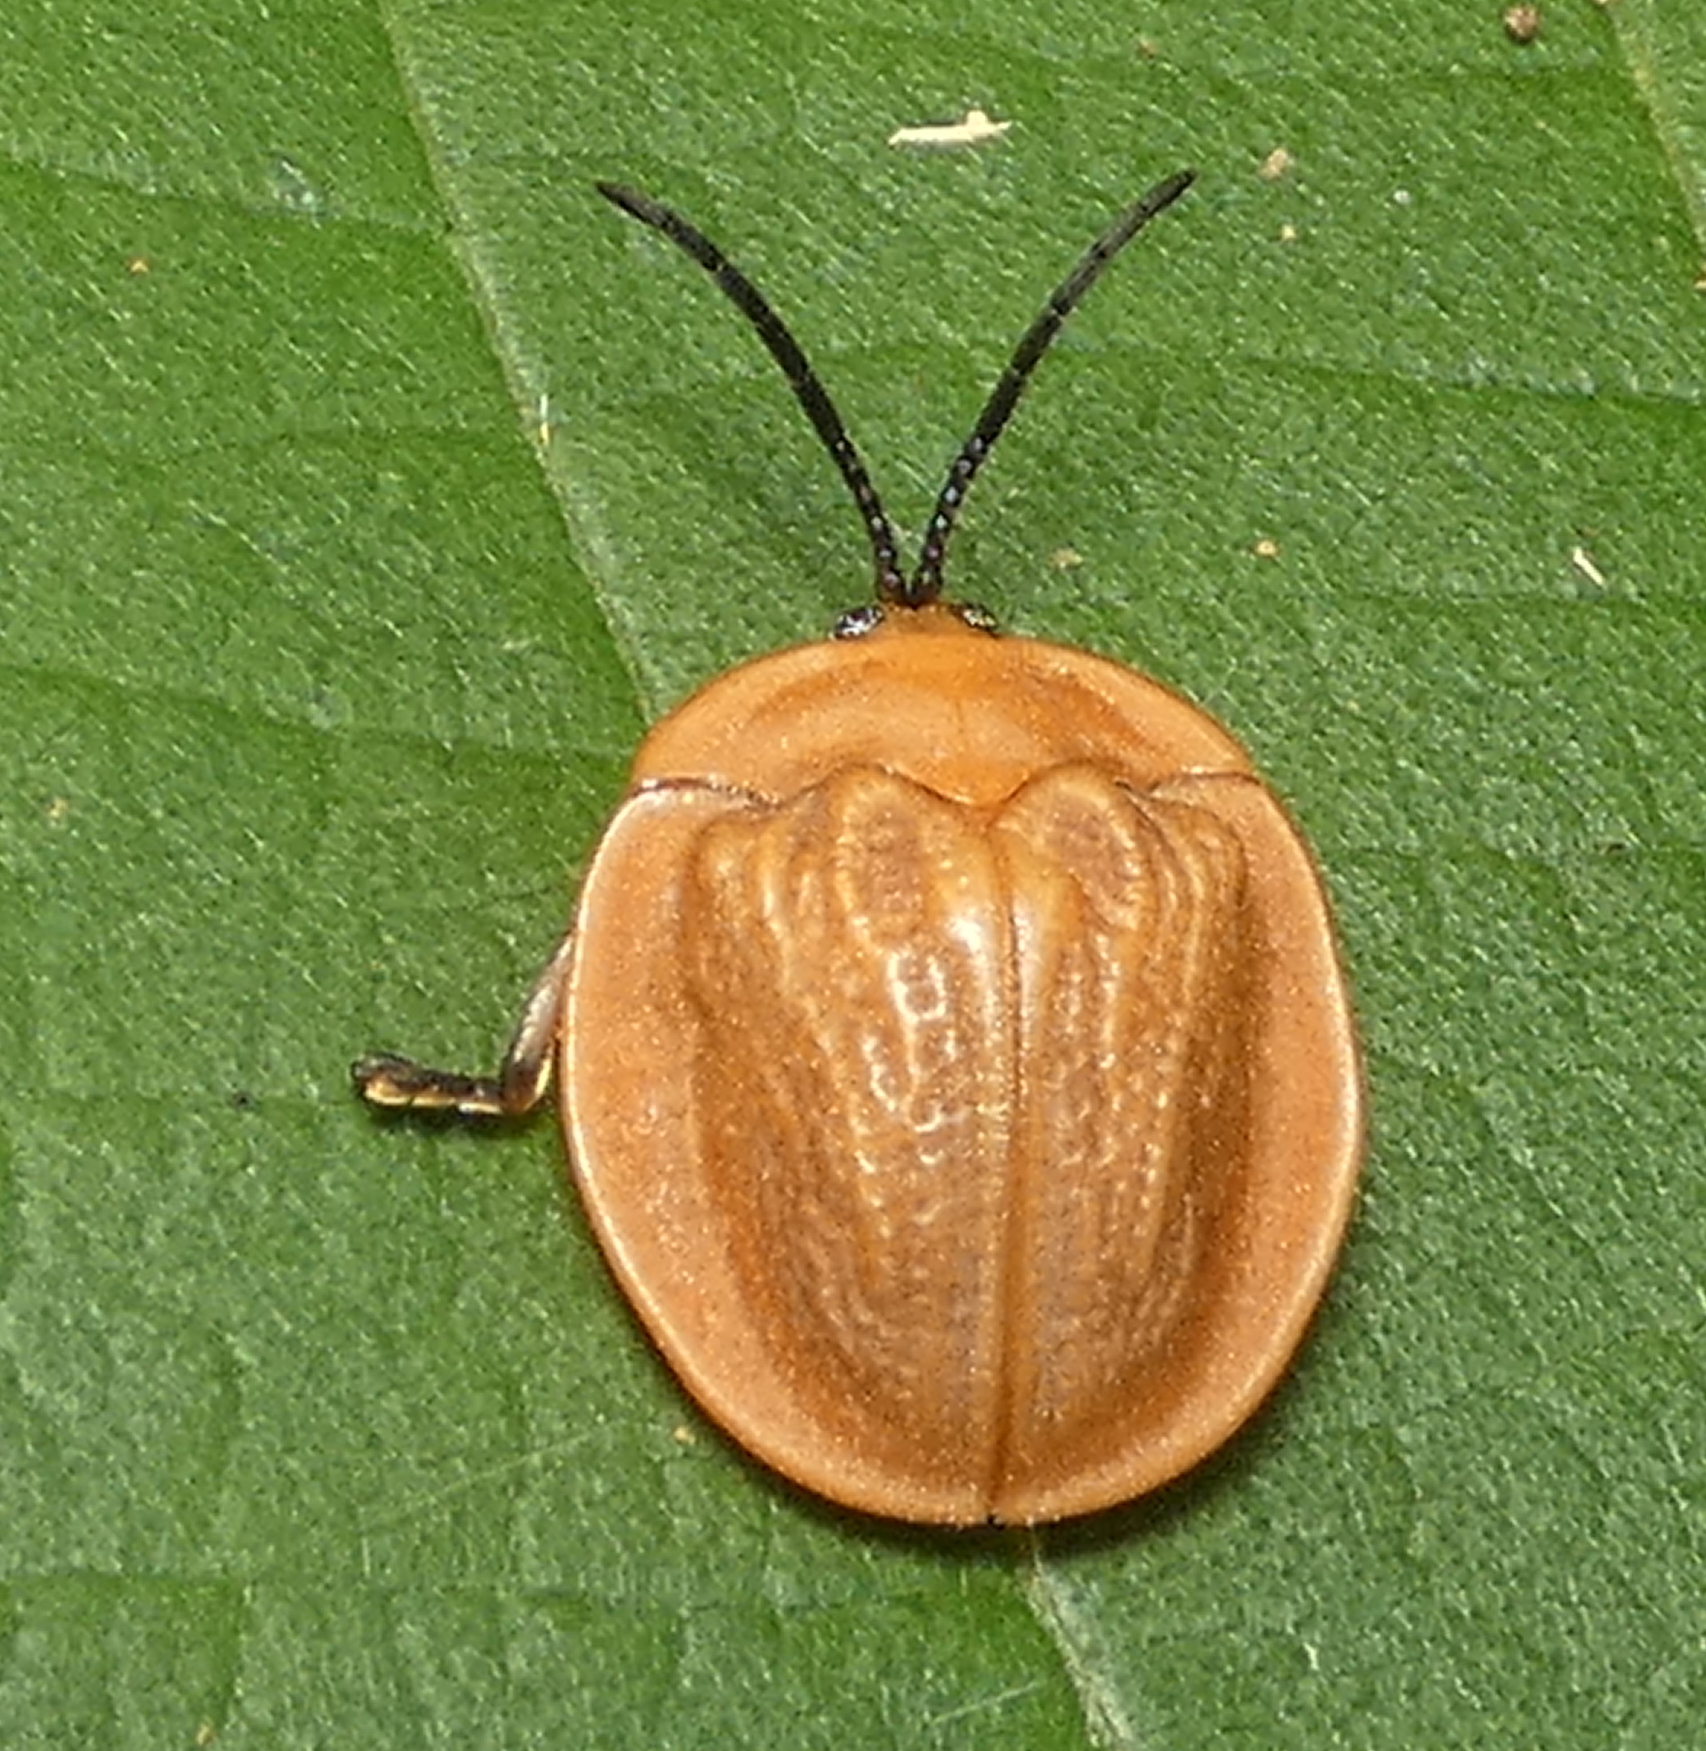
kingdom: Animalia
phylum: Arthropoda
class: Insecta
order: Coleoptera
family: Chrysomelidae
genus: Cyclosoma
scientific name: Cyclosoma nigritarsis
